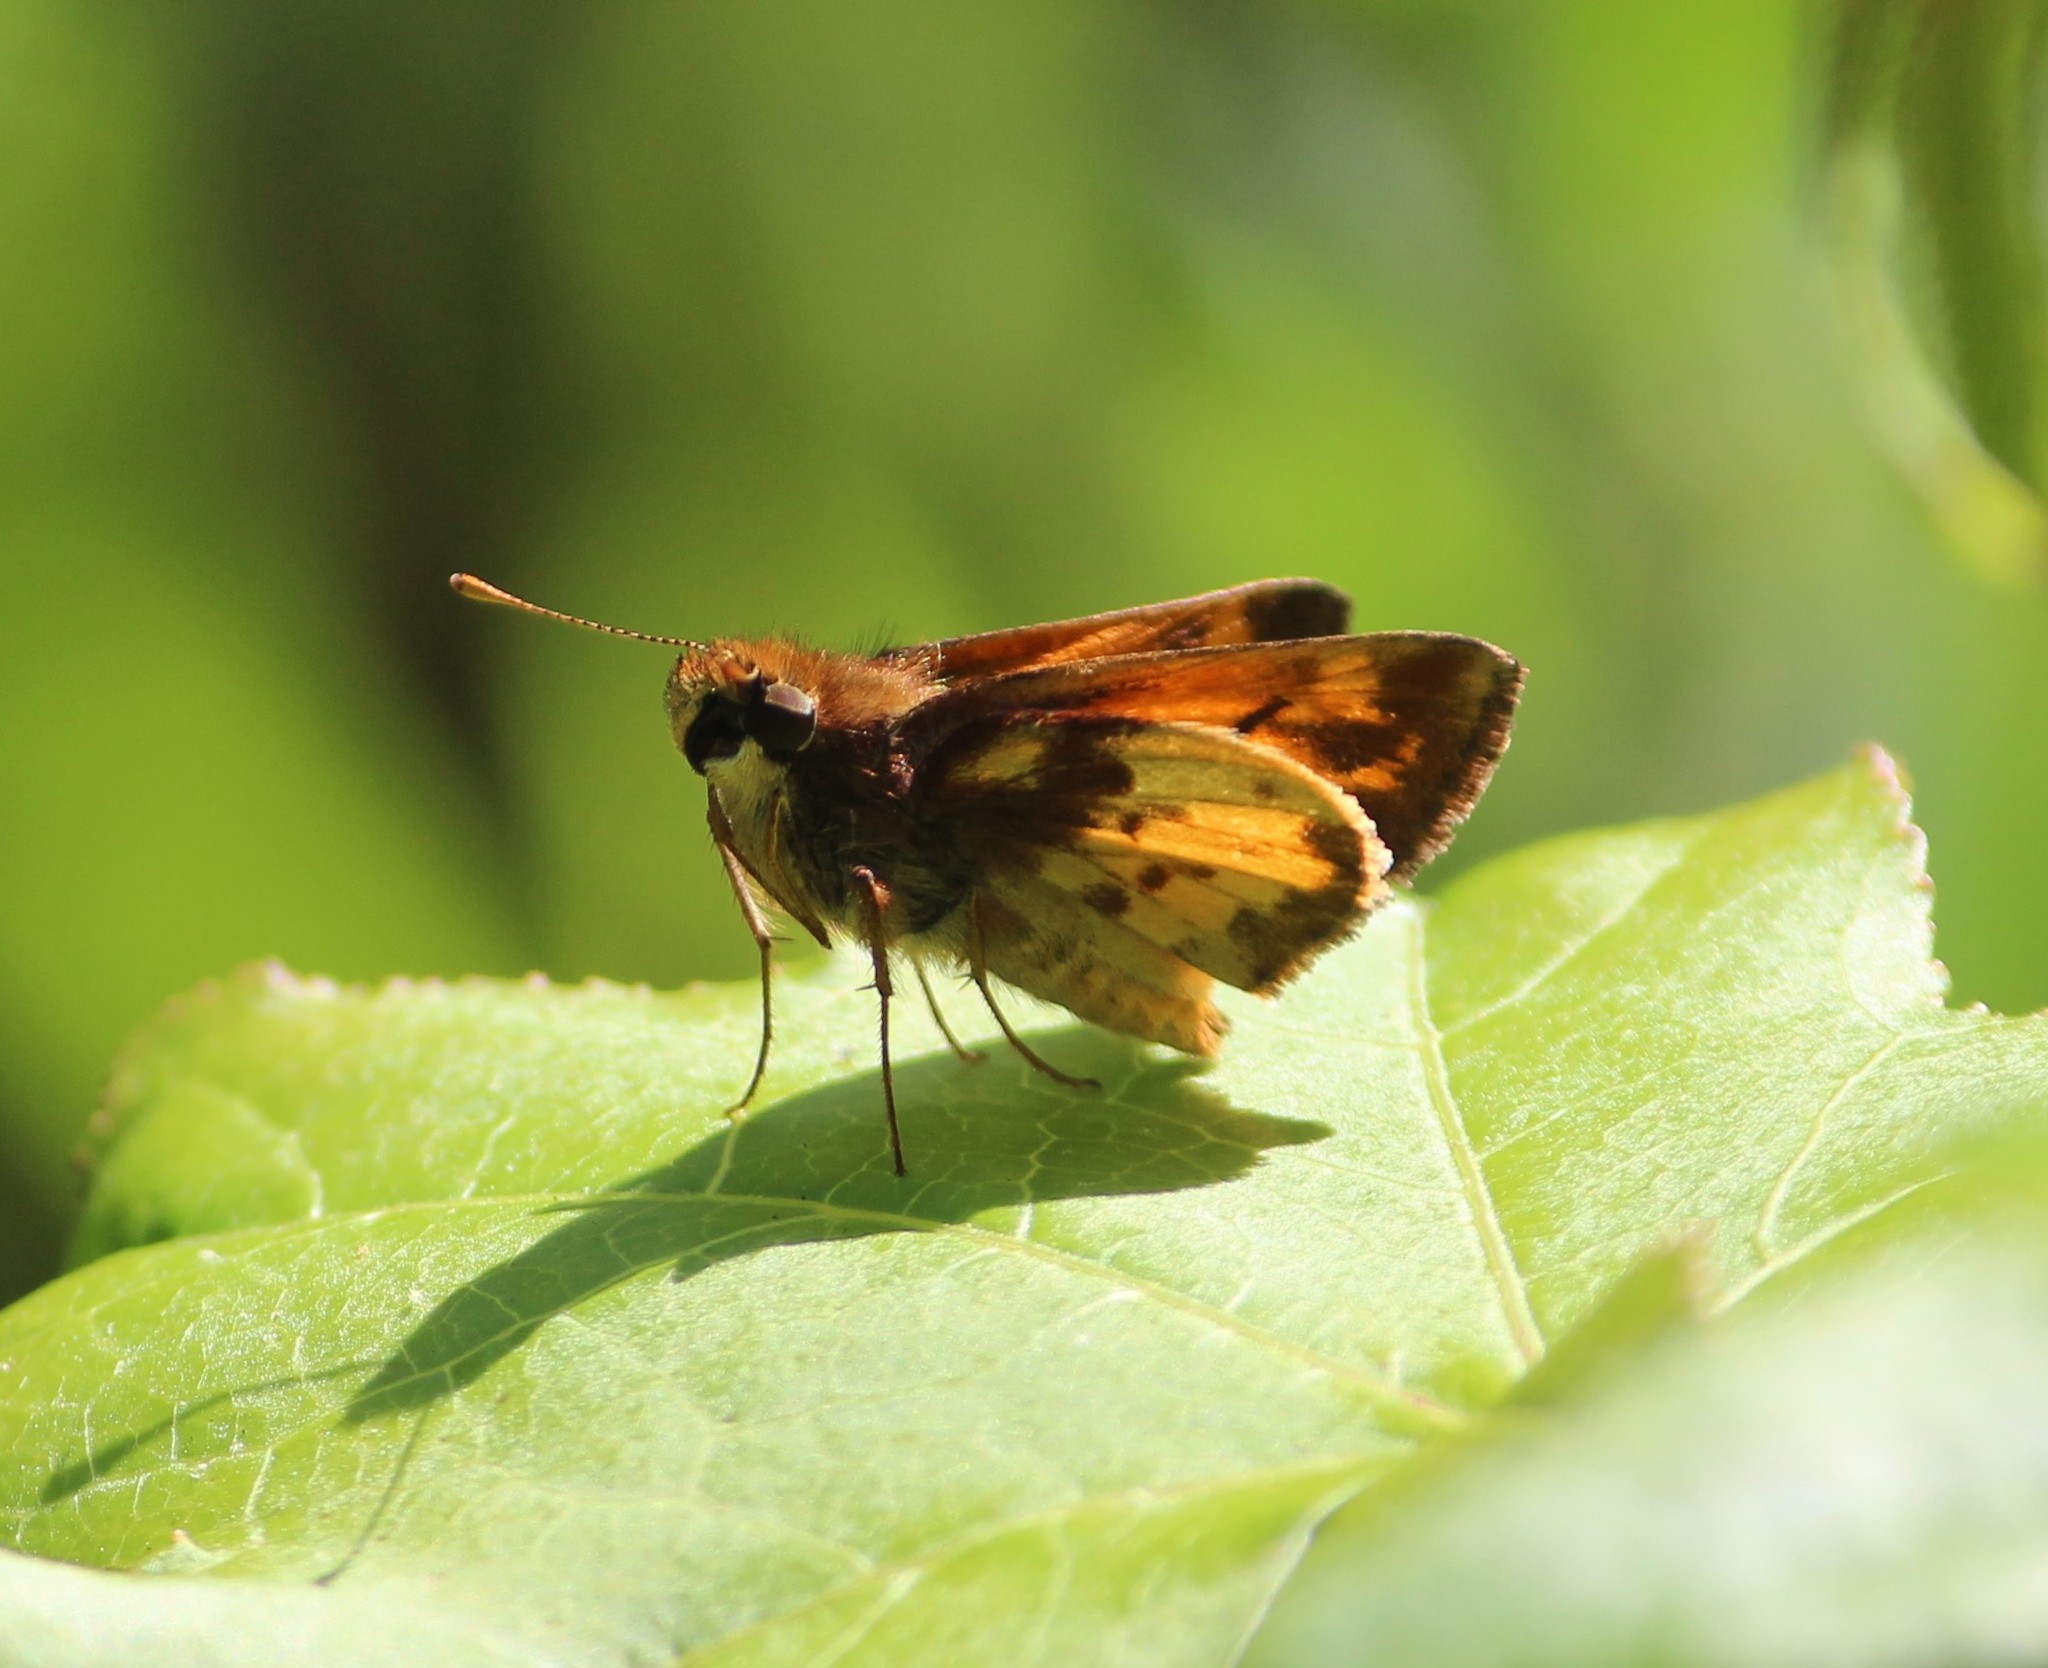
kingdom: Animalia
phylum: Arthropoda
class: Insecta
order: Lepidoptera
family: Hesperiidae
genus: Lon
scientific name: Lon zabulon
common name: Zabulon skipper
